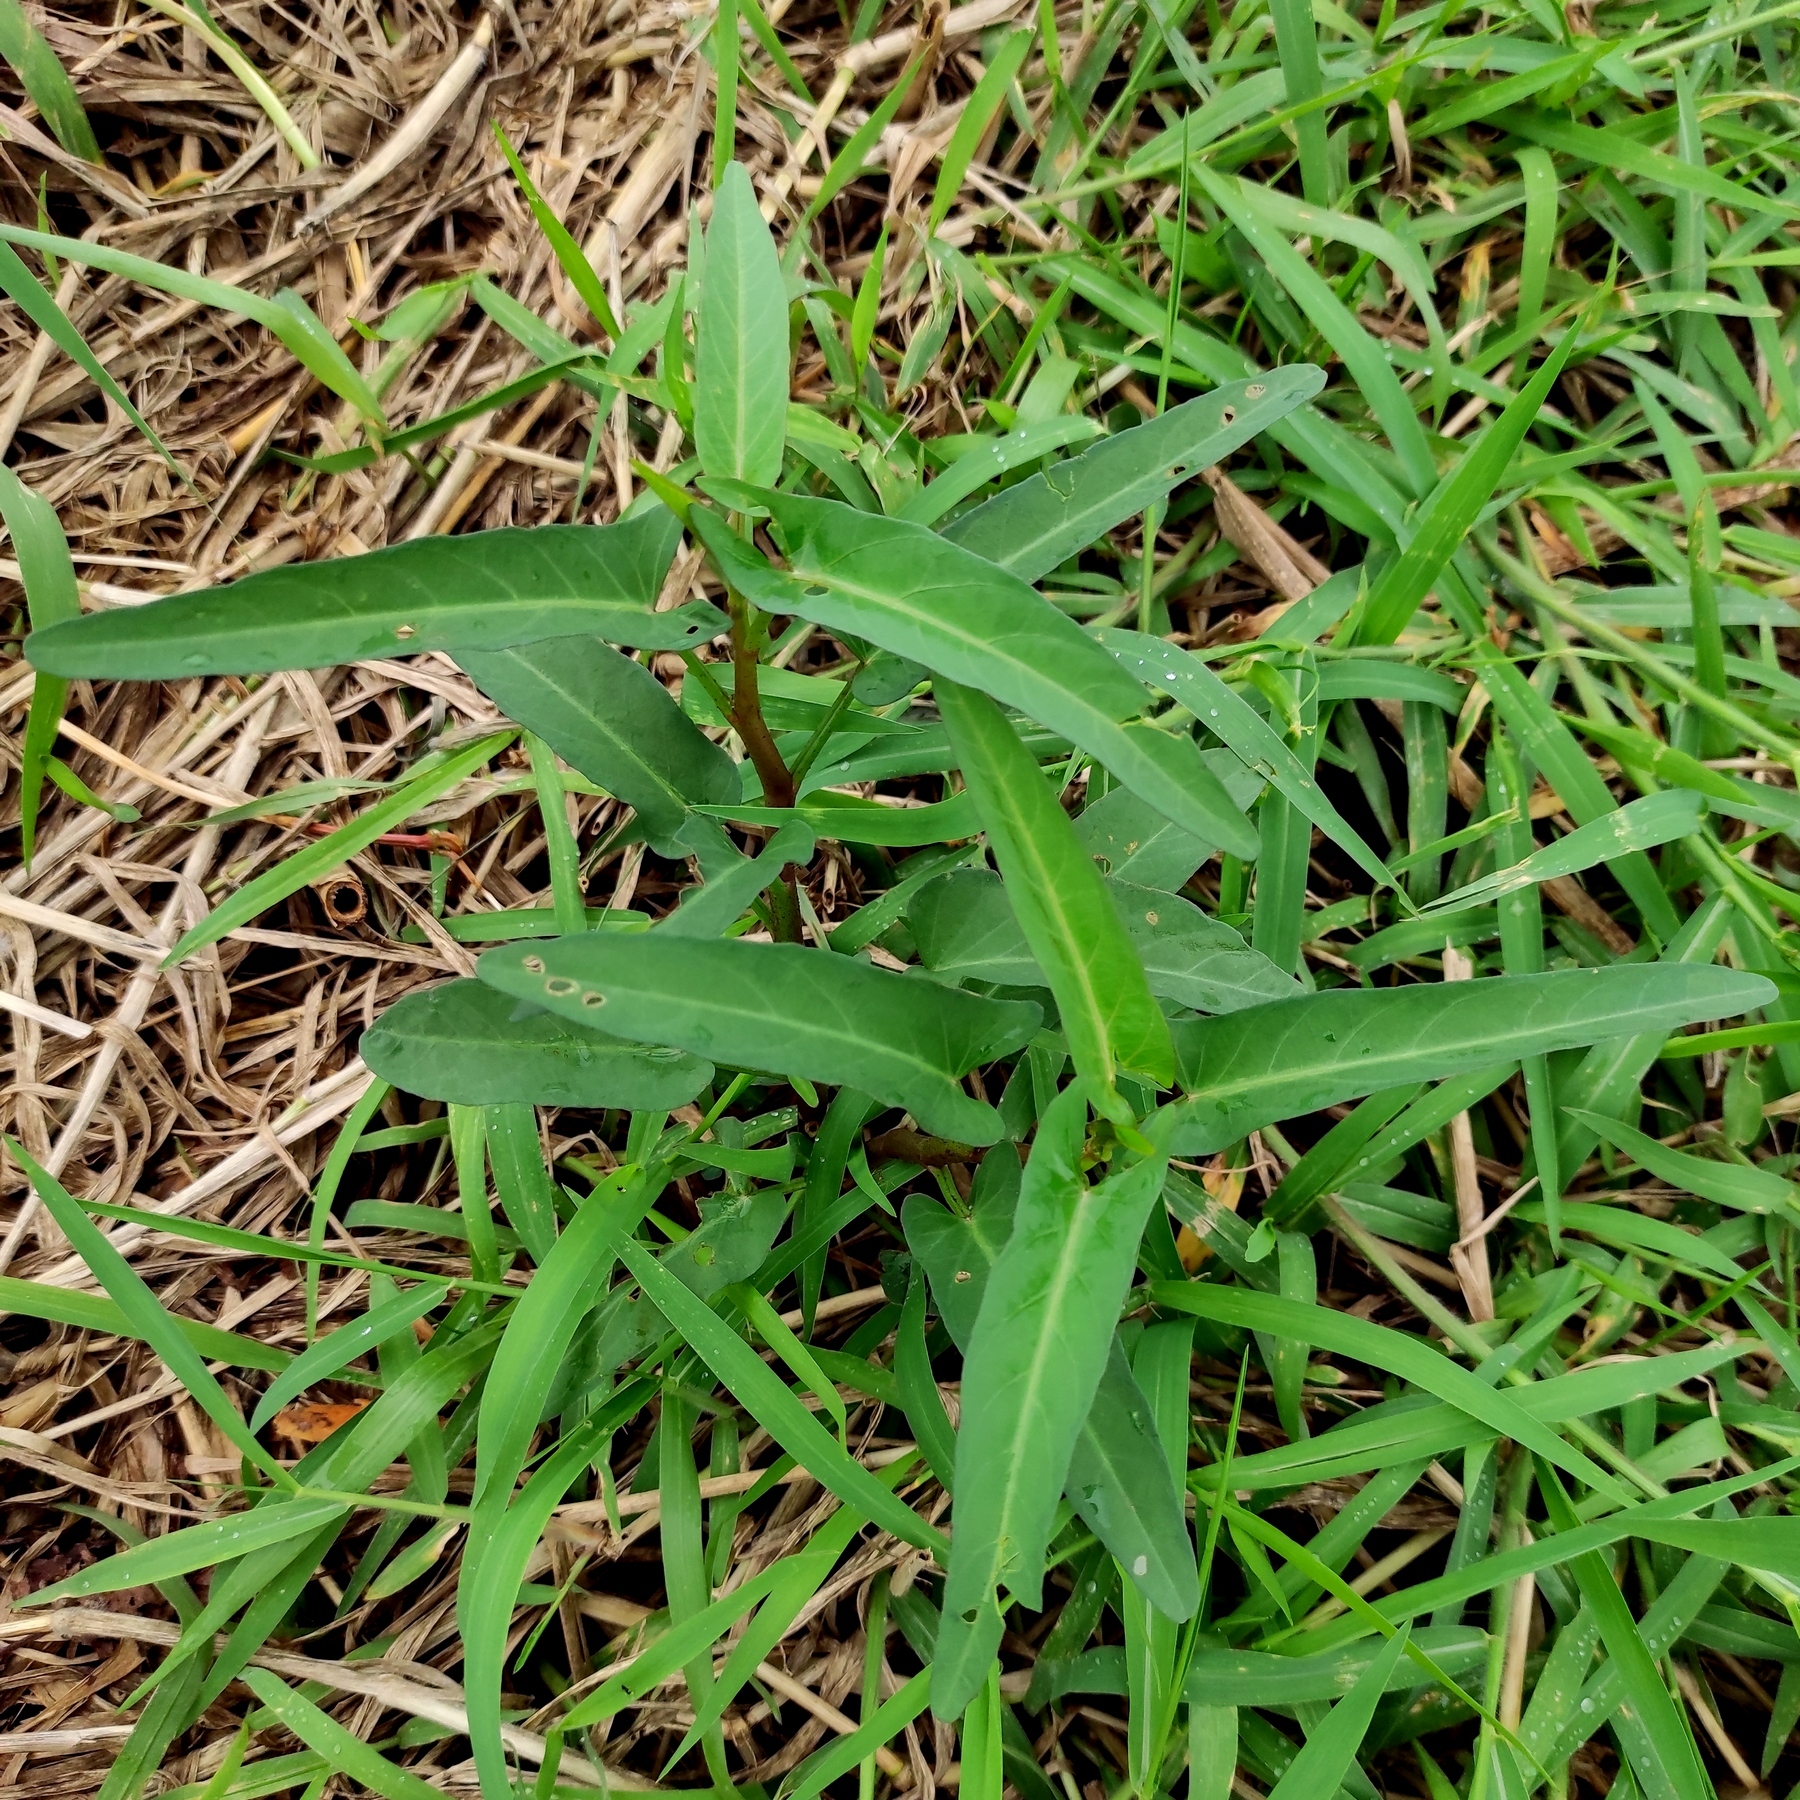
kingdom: Plantae
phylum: Tracheophyta
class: Magnoliopsida
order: Solanales
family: Convolvulaceae
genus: Ipomoea
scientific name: Ipomoea aquatica
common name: Swamp morning-glory
